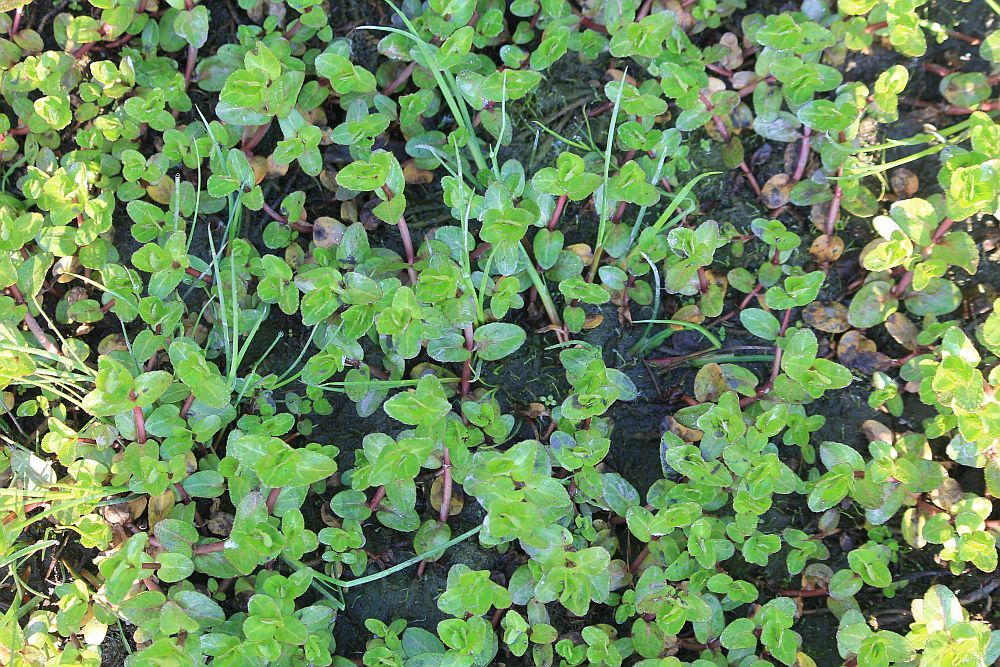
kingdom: Plantae
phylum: Tracheophyta
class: Magnoliopsida
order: Lamiales
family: Plantaginaceae
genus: Veronica
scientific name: Veronica beccabunga
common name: Brooklime
